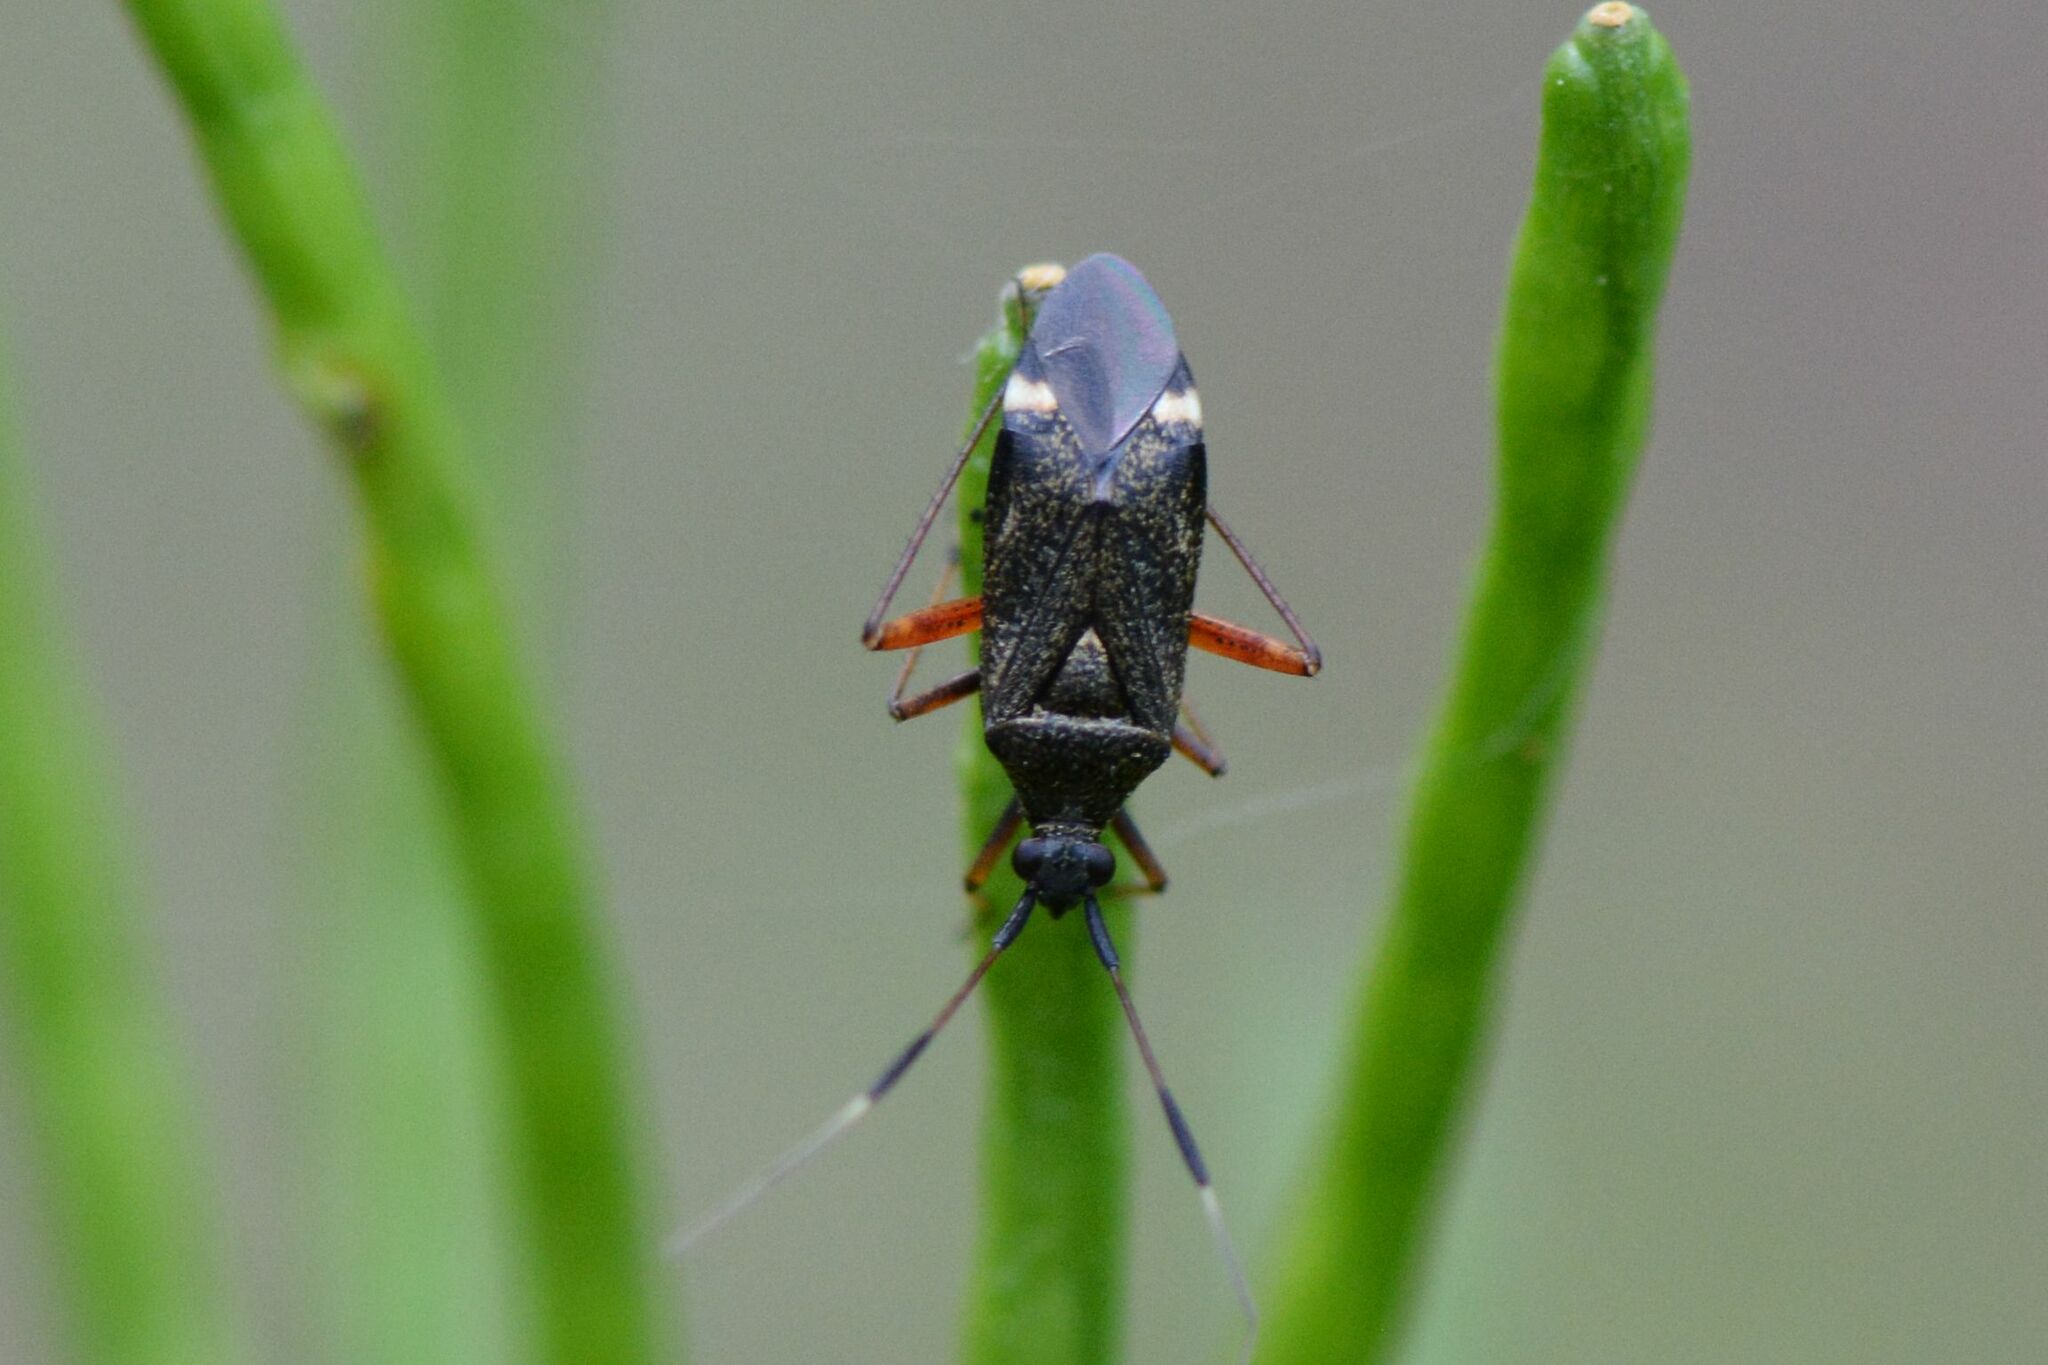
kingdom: Animalia
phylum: Arthropoda
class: Insecta
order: Hemiptera
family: Miridae
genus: Closterotomus
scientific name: Closterotomus biclavatus
